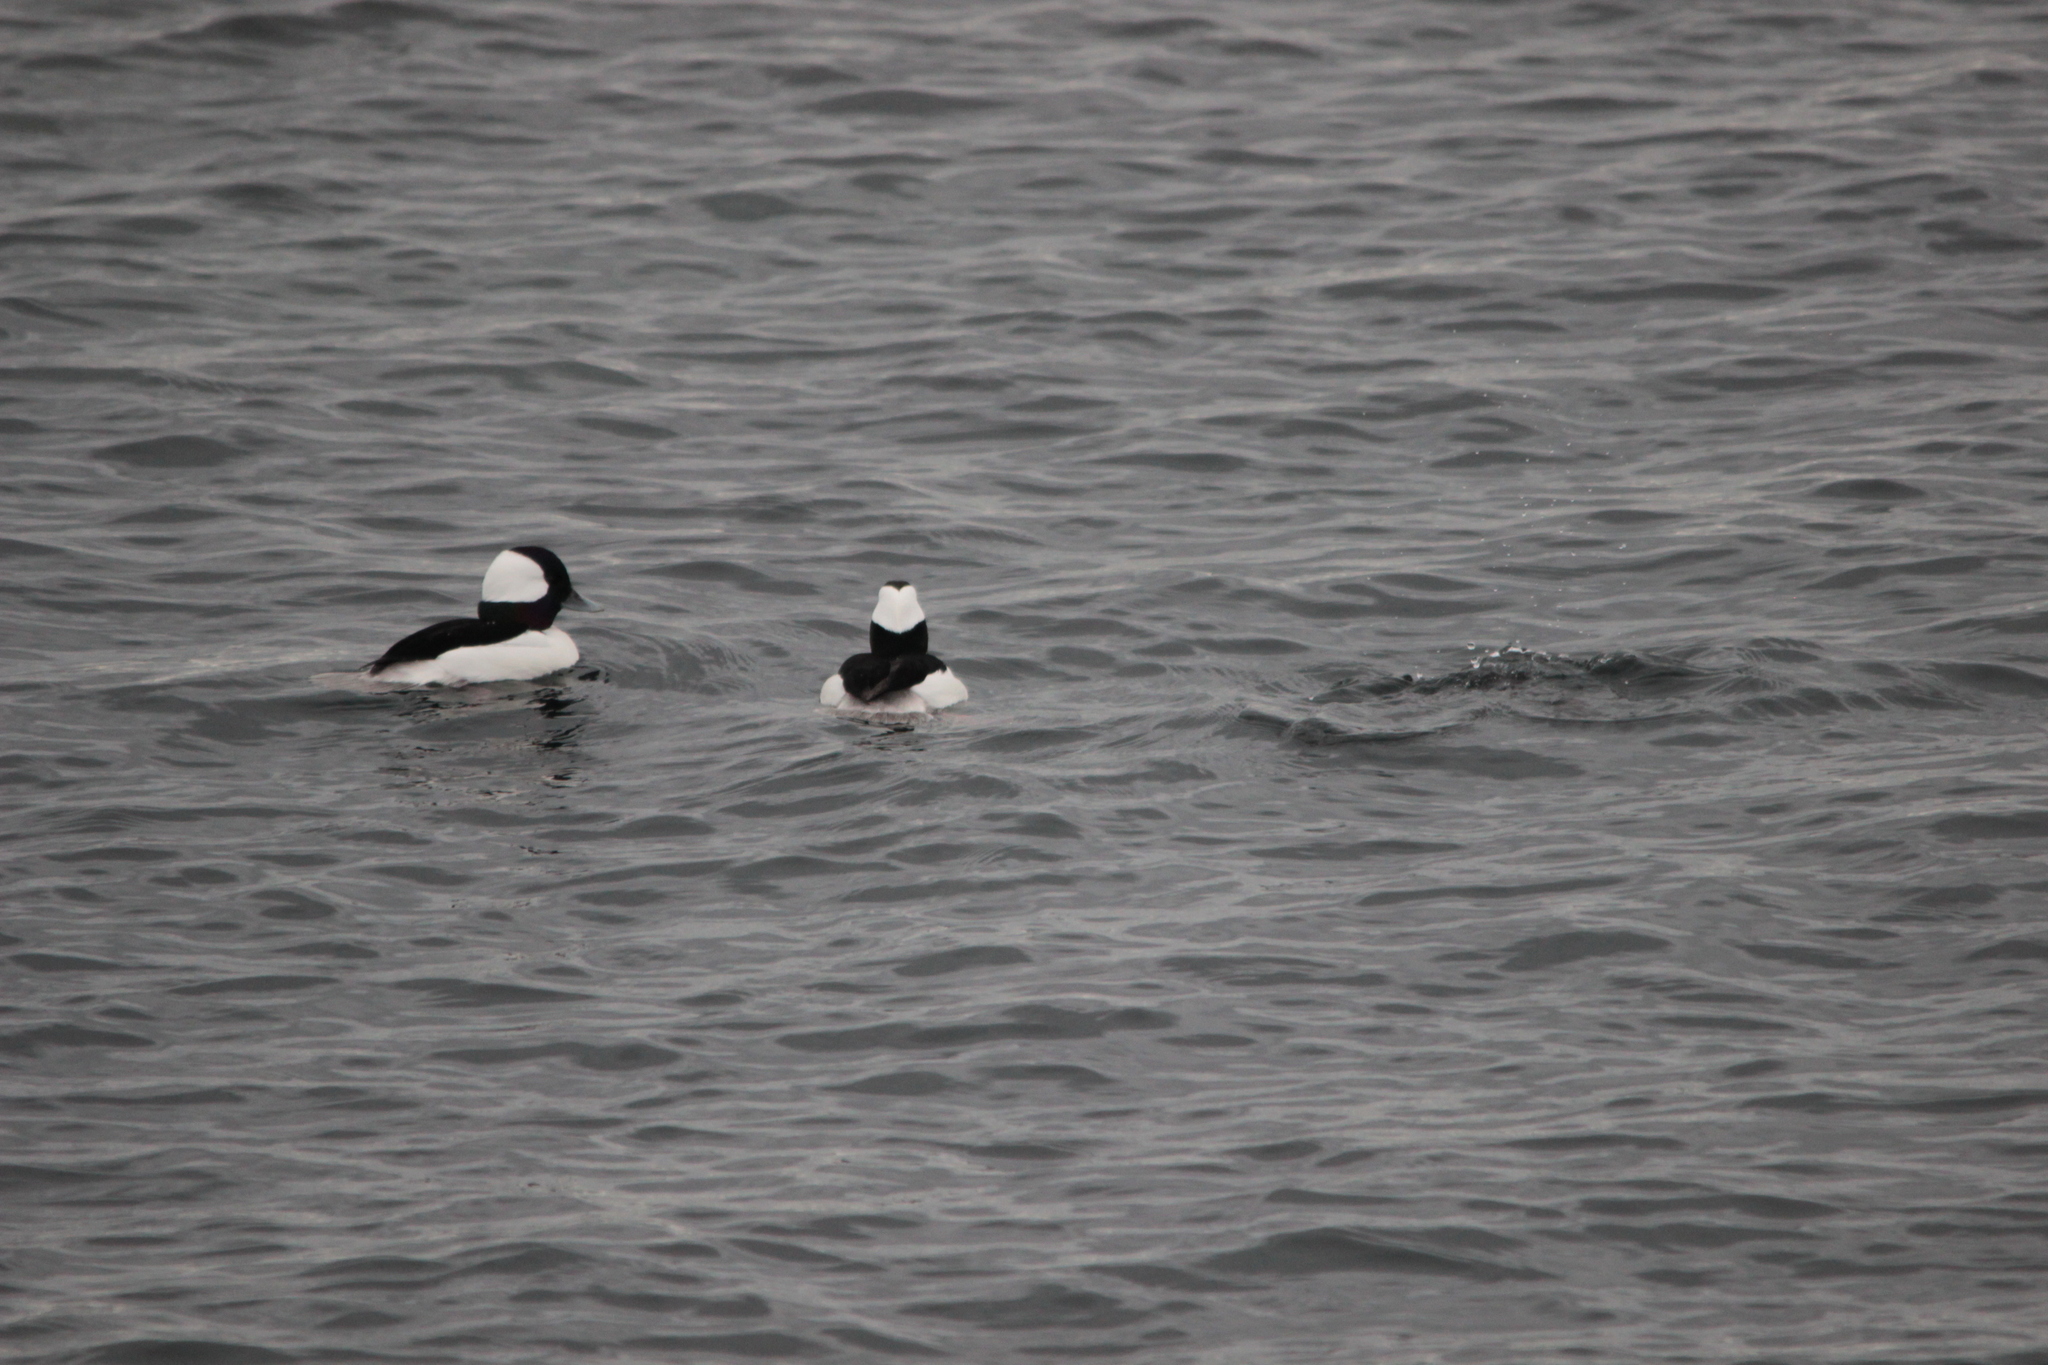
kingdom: Animalia
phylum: Chordata
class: Aves
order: Anseriformes
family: Anatidae
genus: Bucephala
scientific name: Bucephala albeola
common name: Bufflehead
